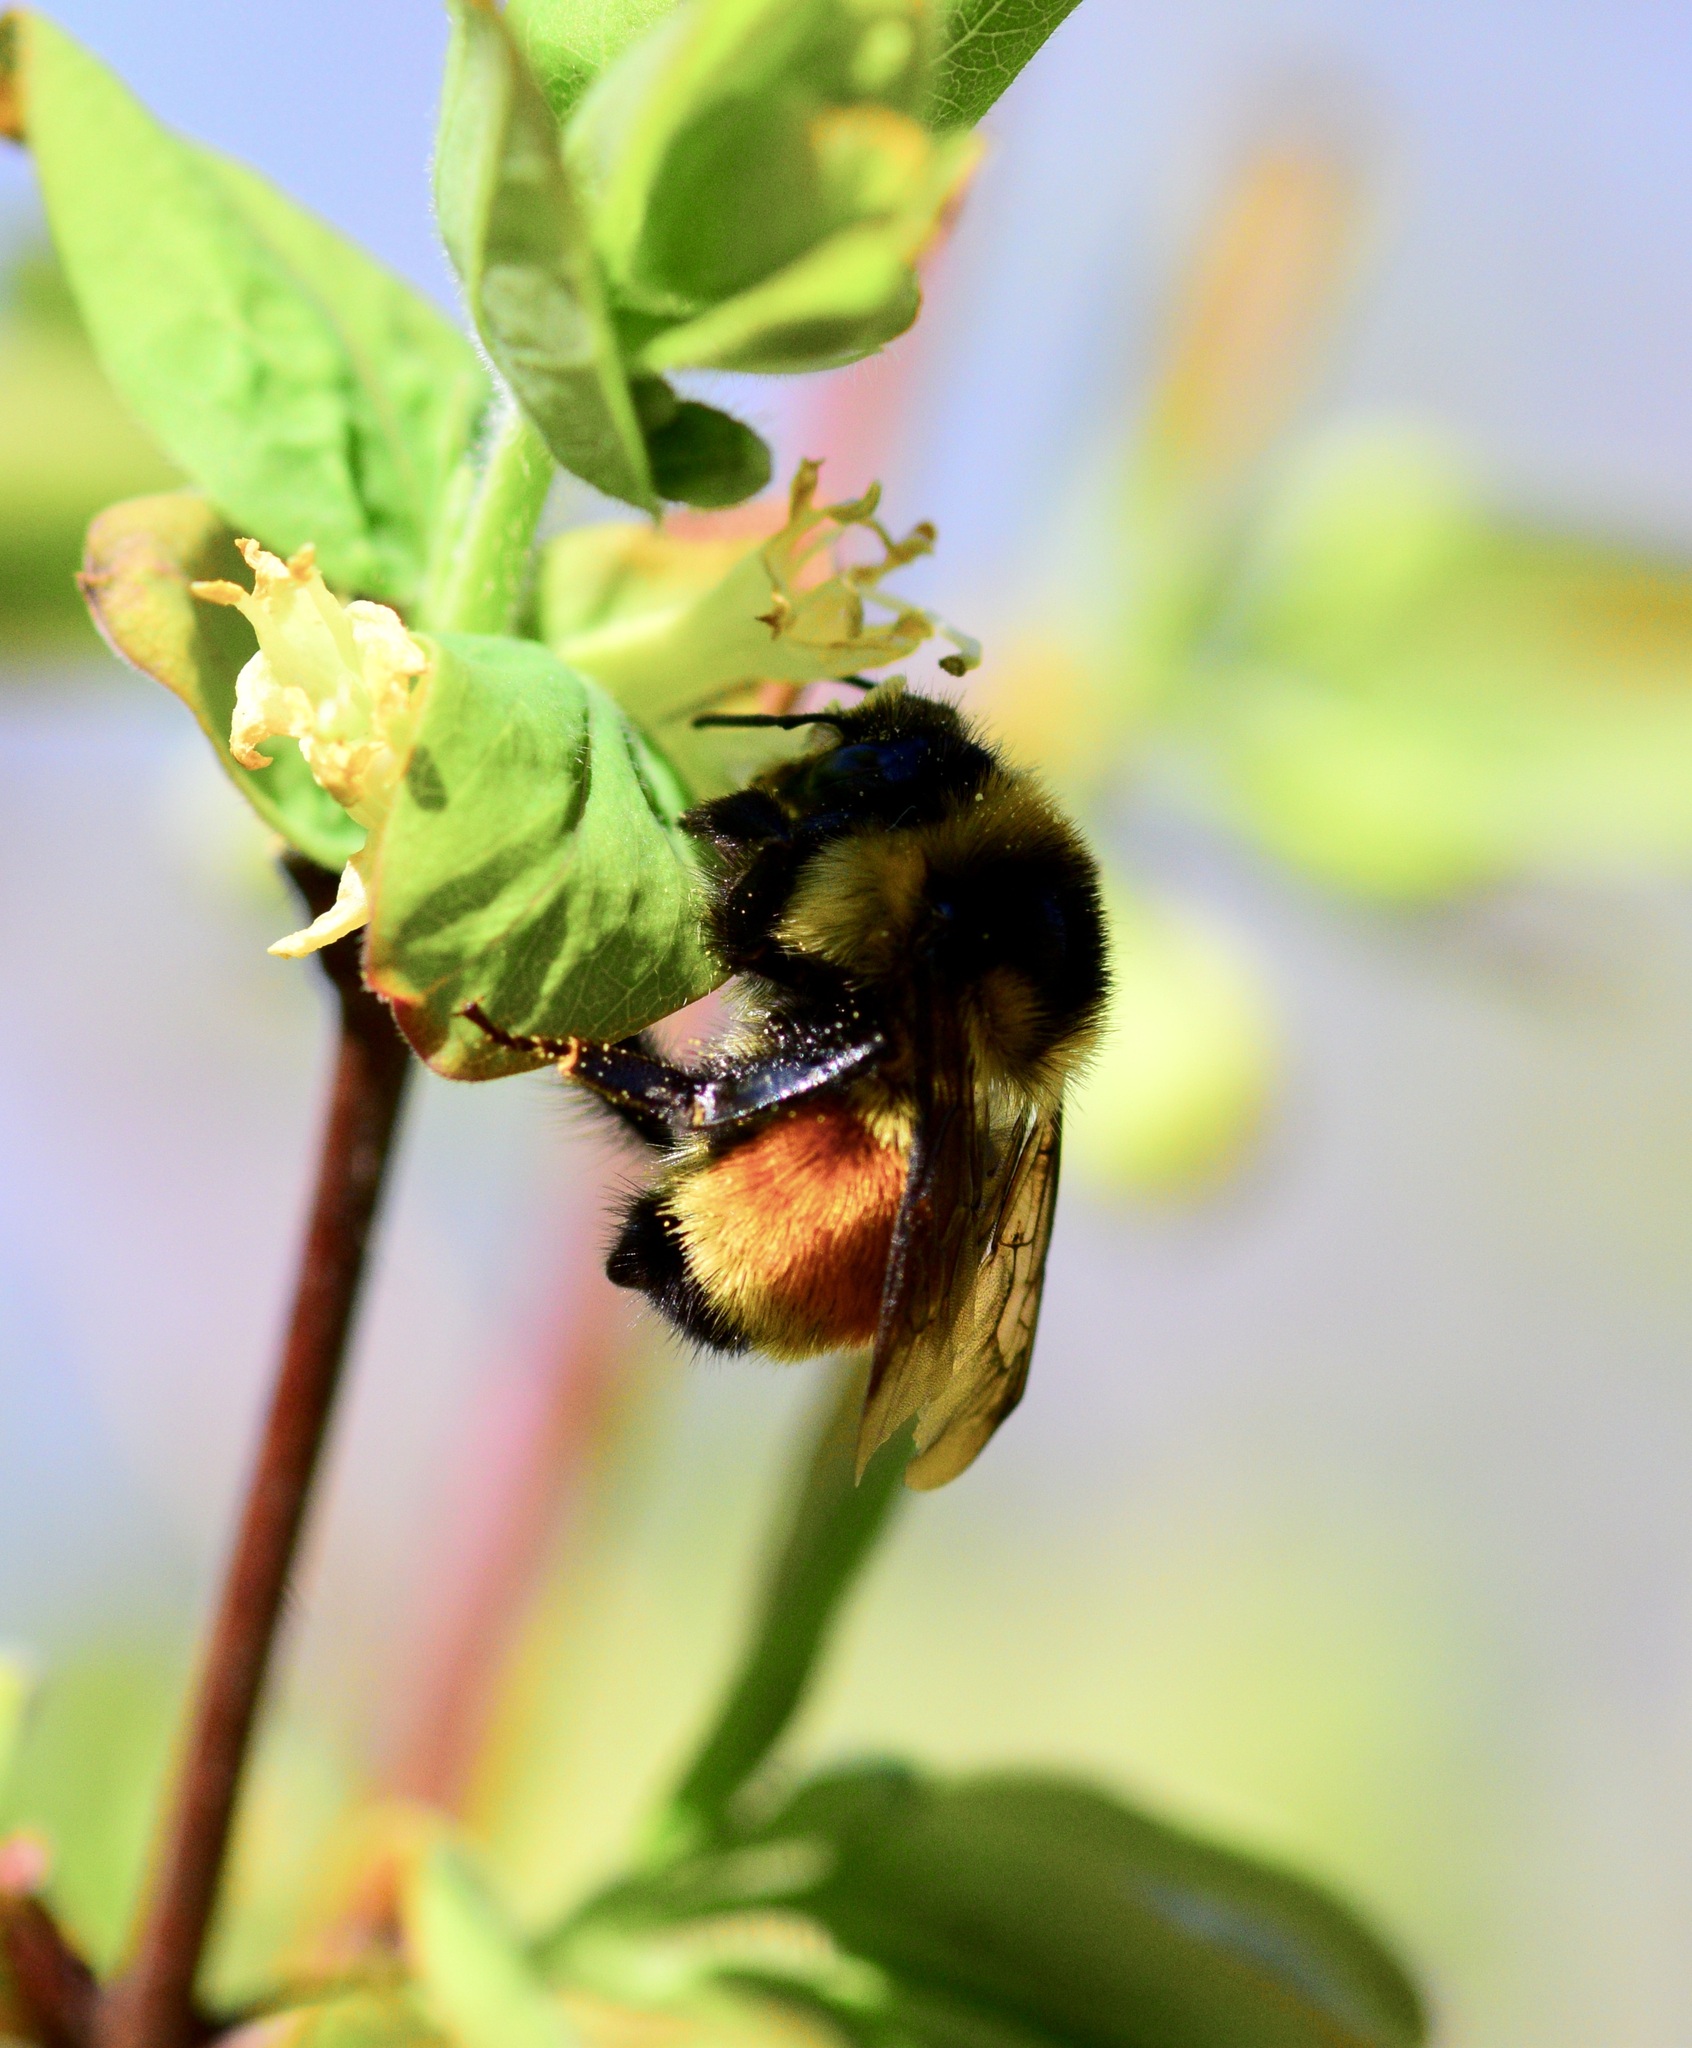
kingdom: Animalia
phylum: Arthropoda
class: Insecta
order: Hymenoptera
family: Apidae
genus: Bombus
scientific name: Bombus ternarius
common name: Tri-colored bumble bee
